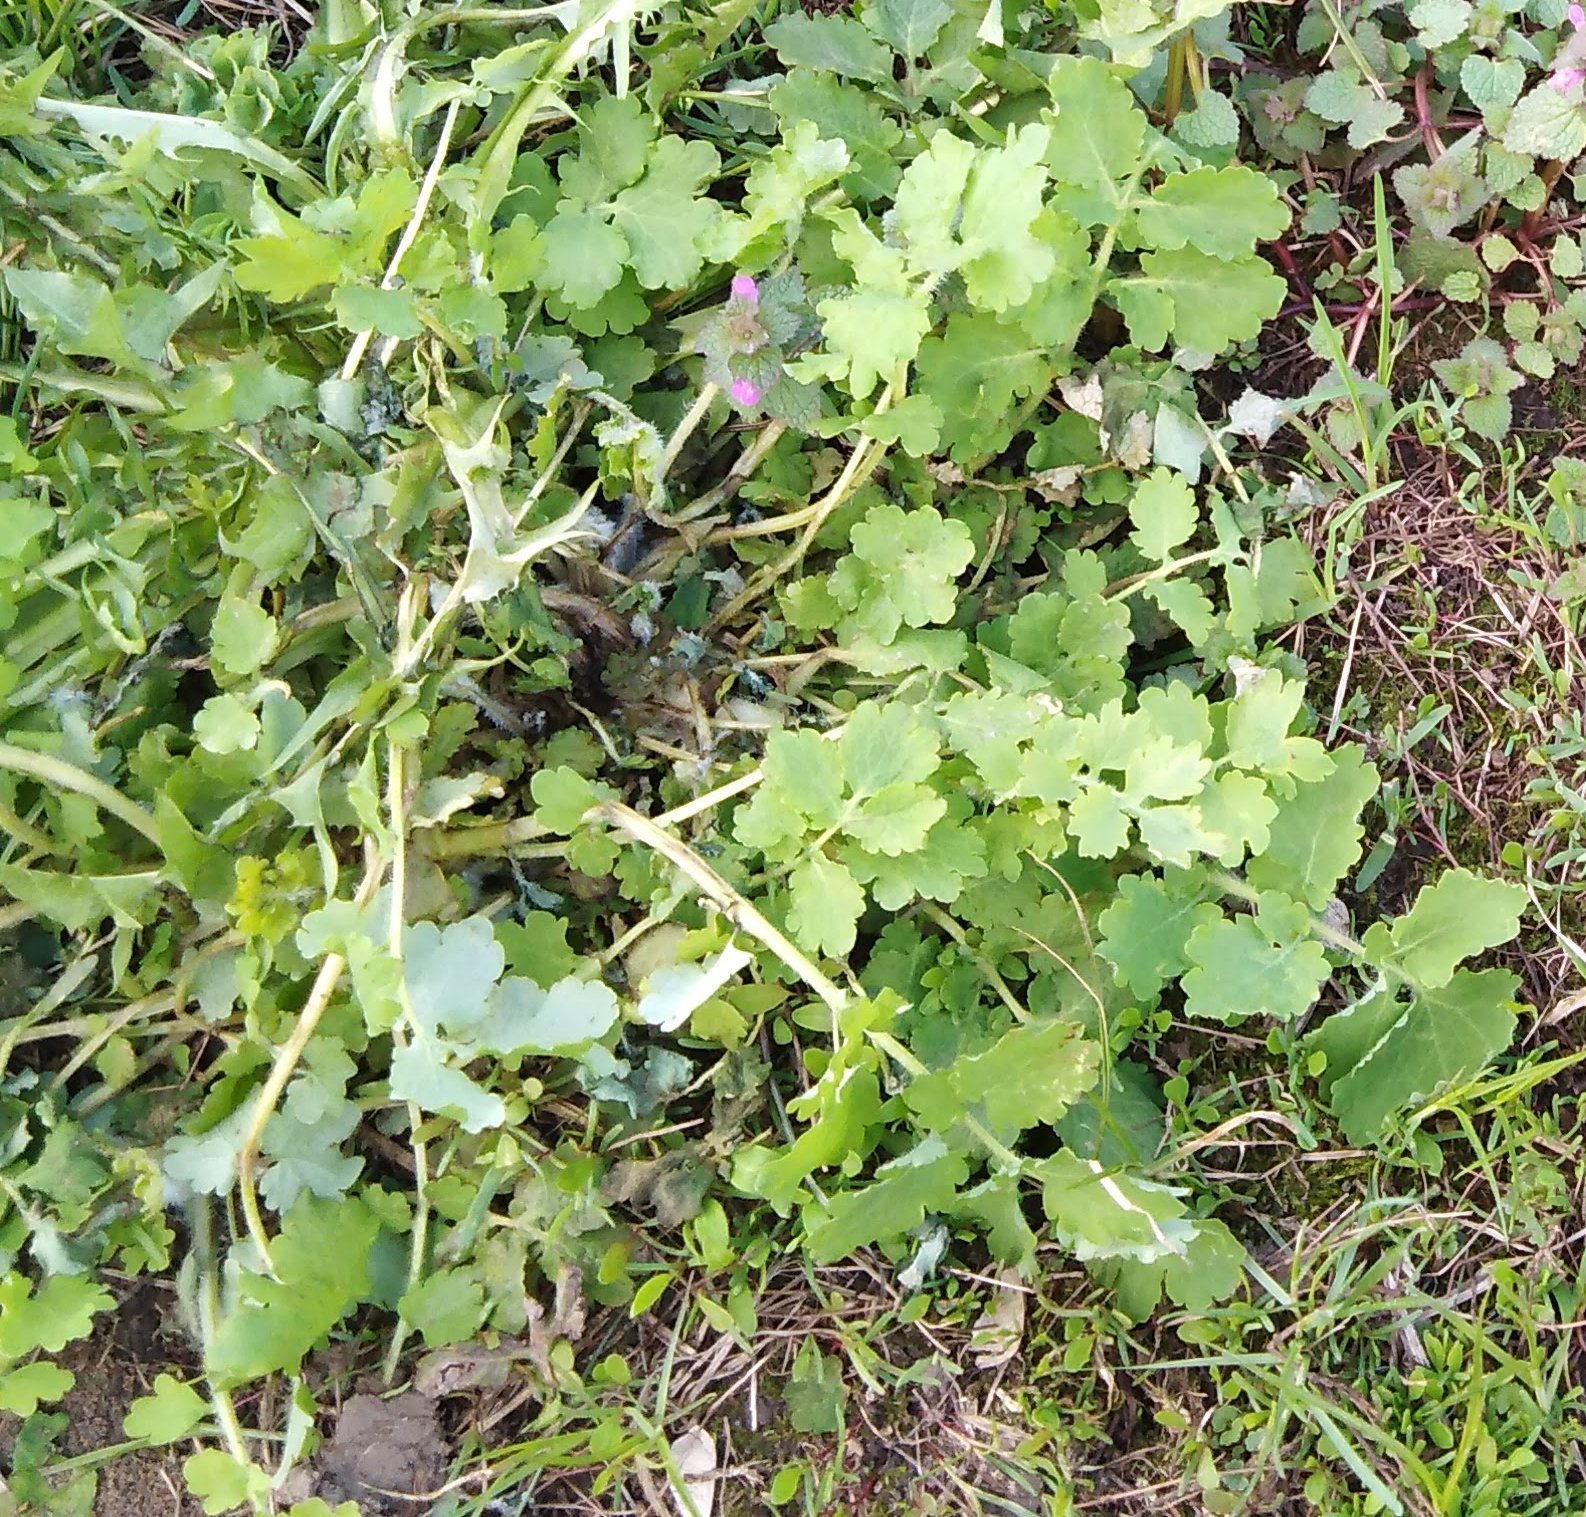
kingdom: Plantae
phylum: Tracheophyta
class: Magnoliopsida
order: Ranunculales
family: Papaveraceae
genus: Chelidonium
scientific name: Chelidonium majus
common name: Greater celandine
